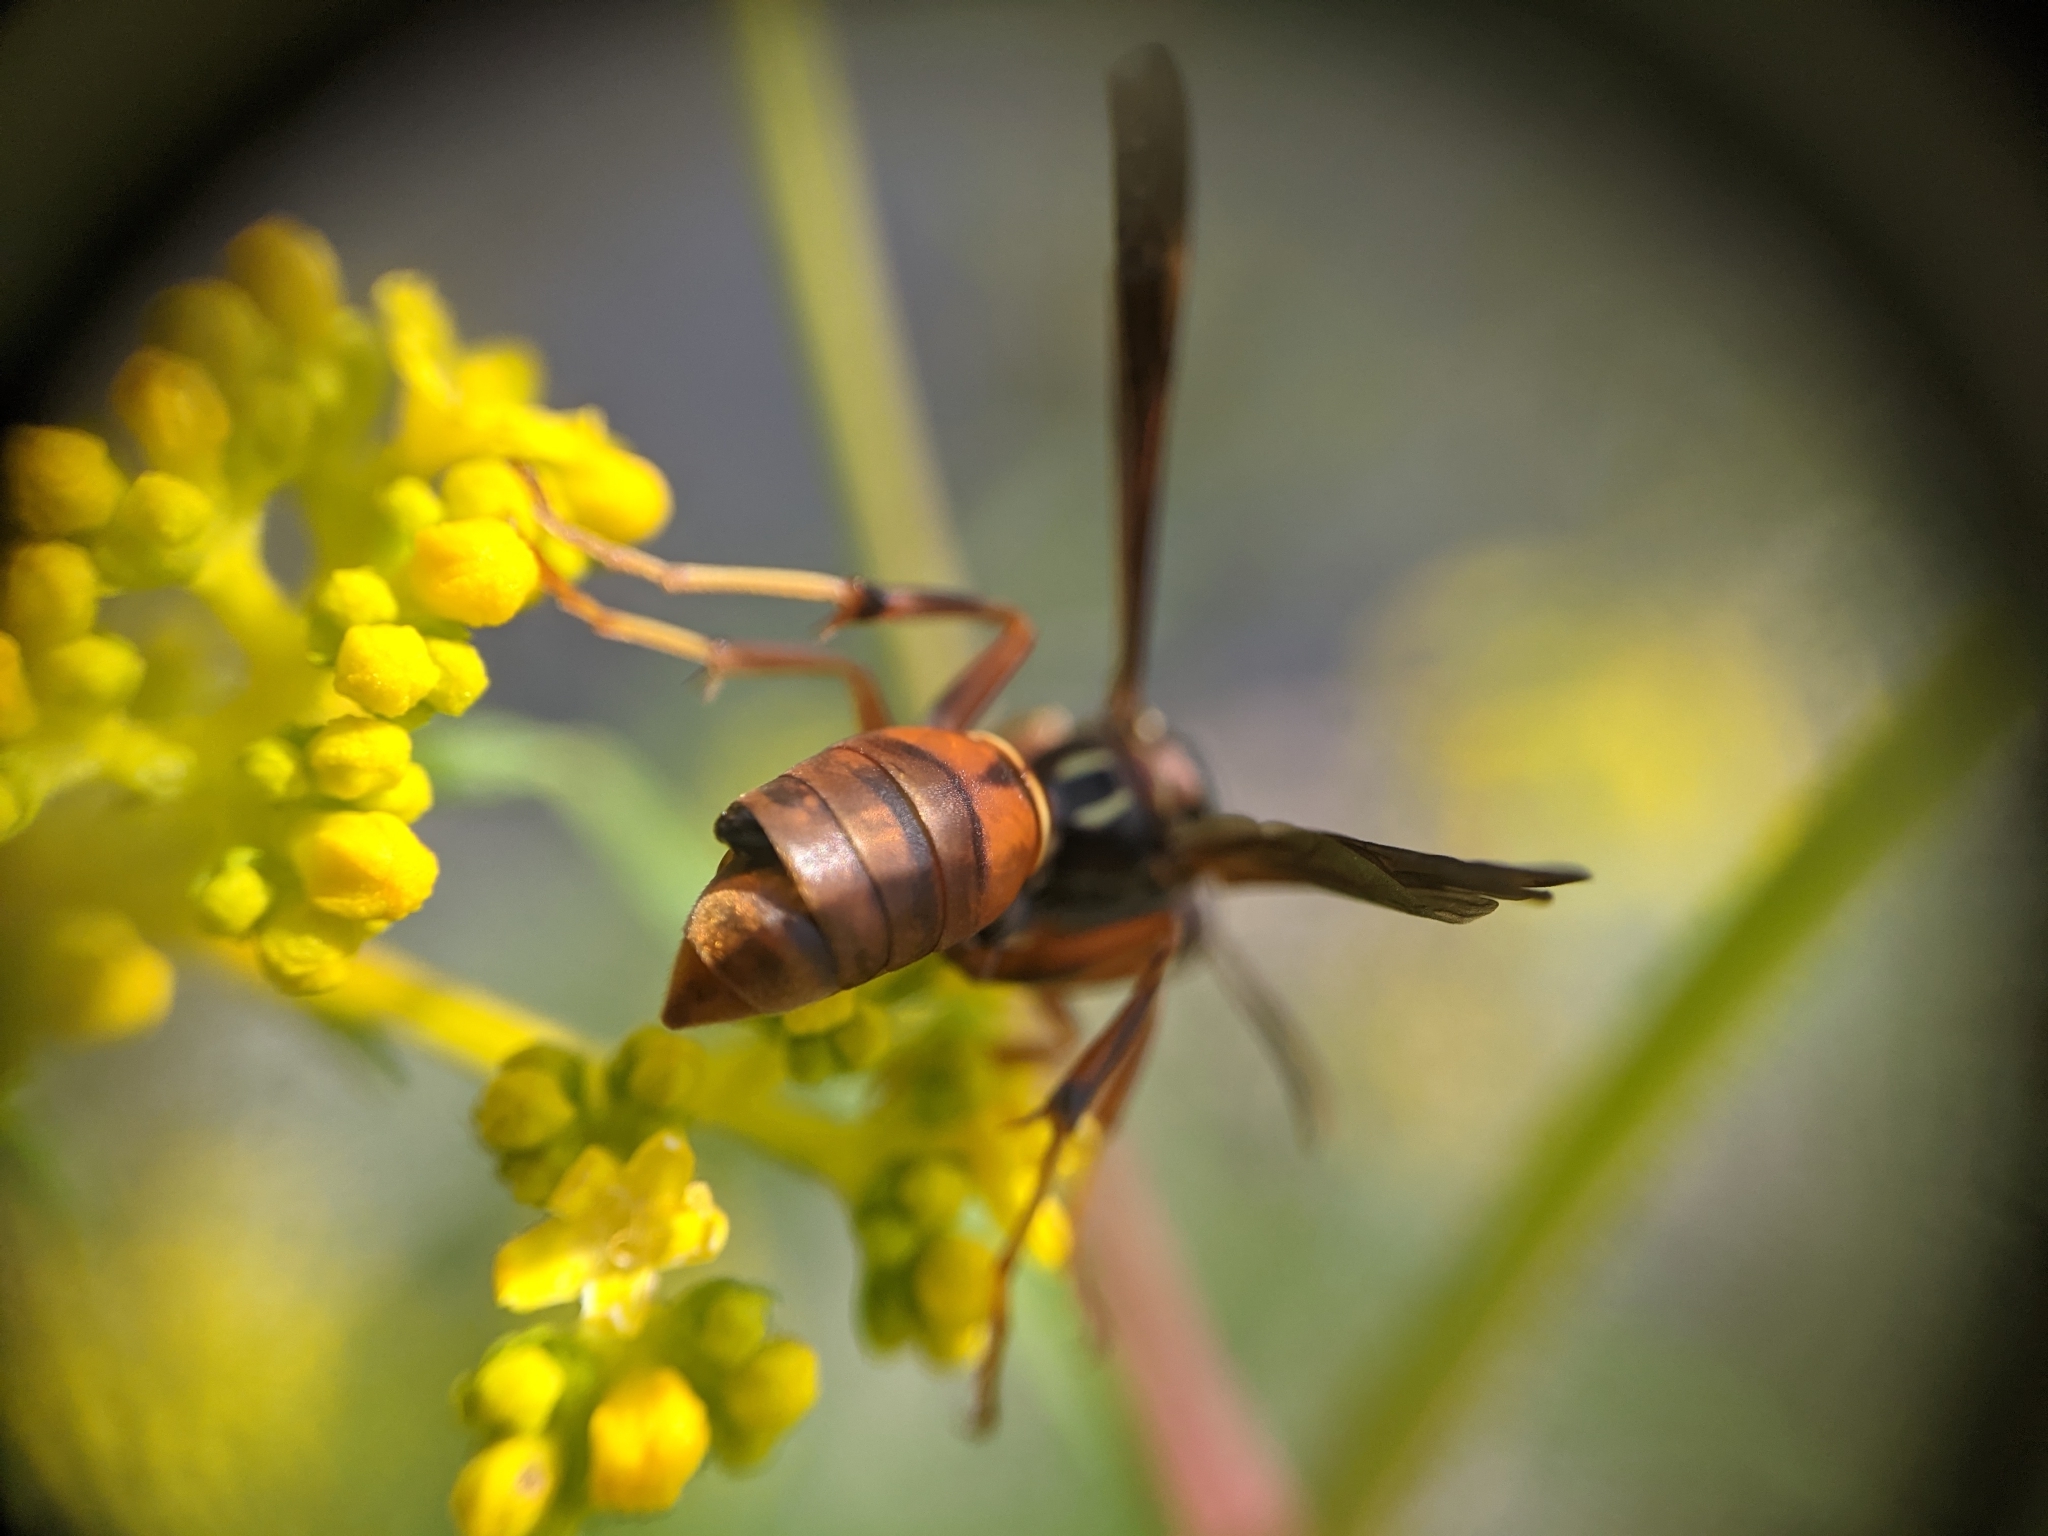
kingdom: Animalia
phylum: Arthropoda
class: Insecta
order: Hymenoptera
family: Eumenidae
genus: Polistes
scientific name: Polistes fuscatus
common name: Dark paper wasp
